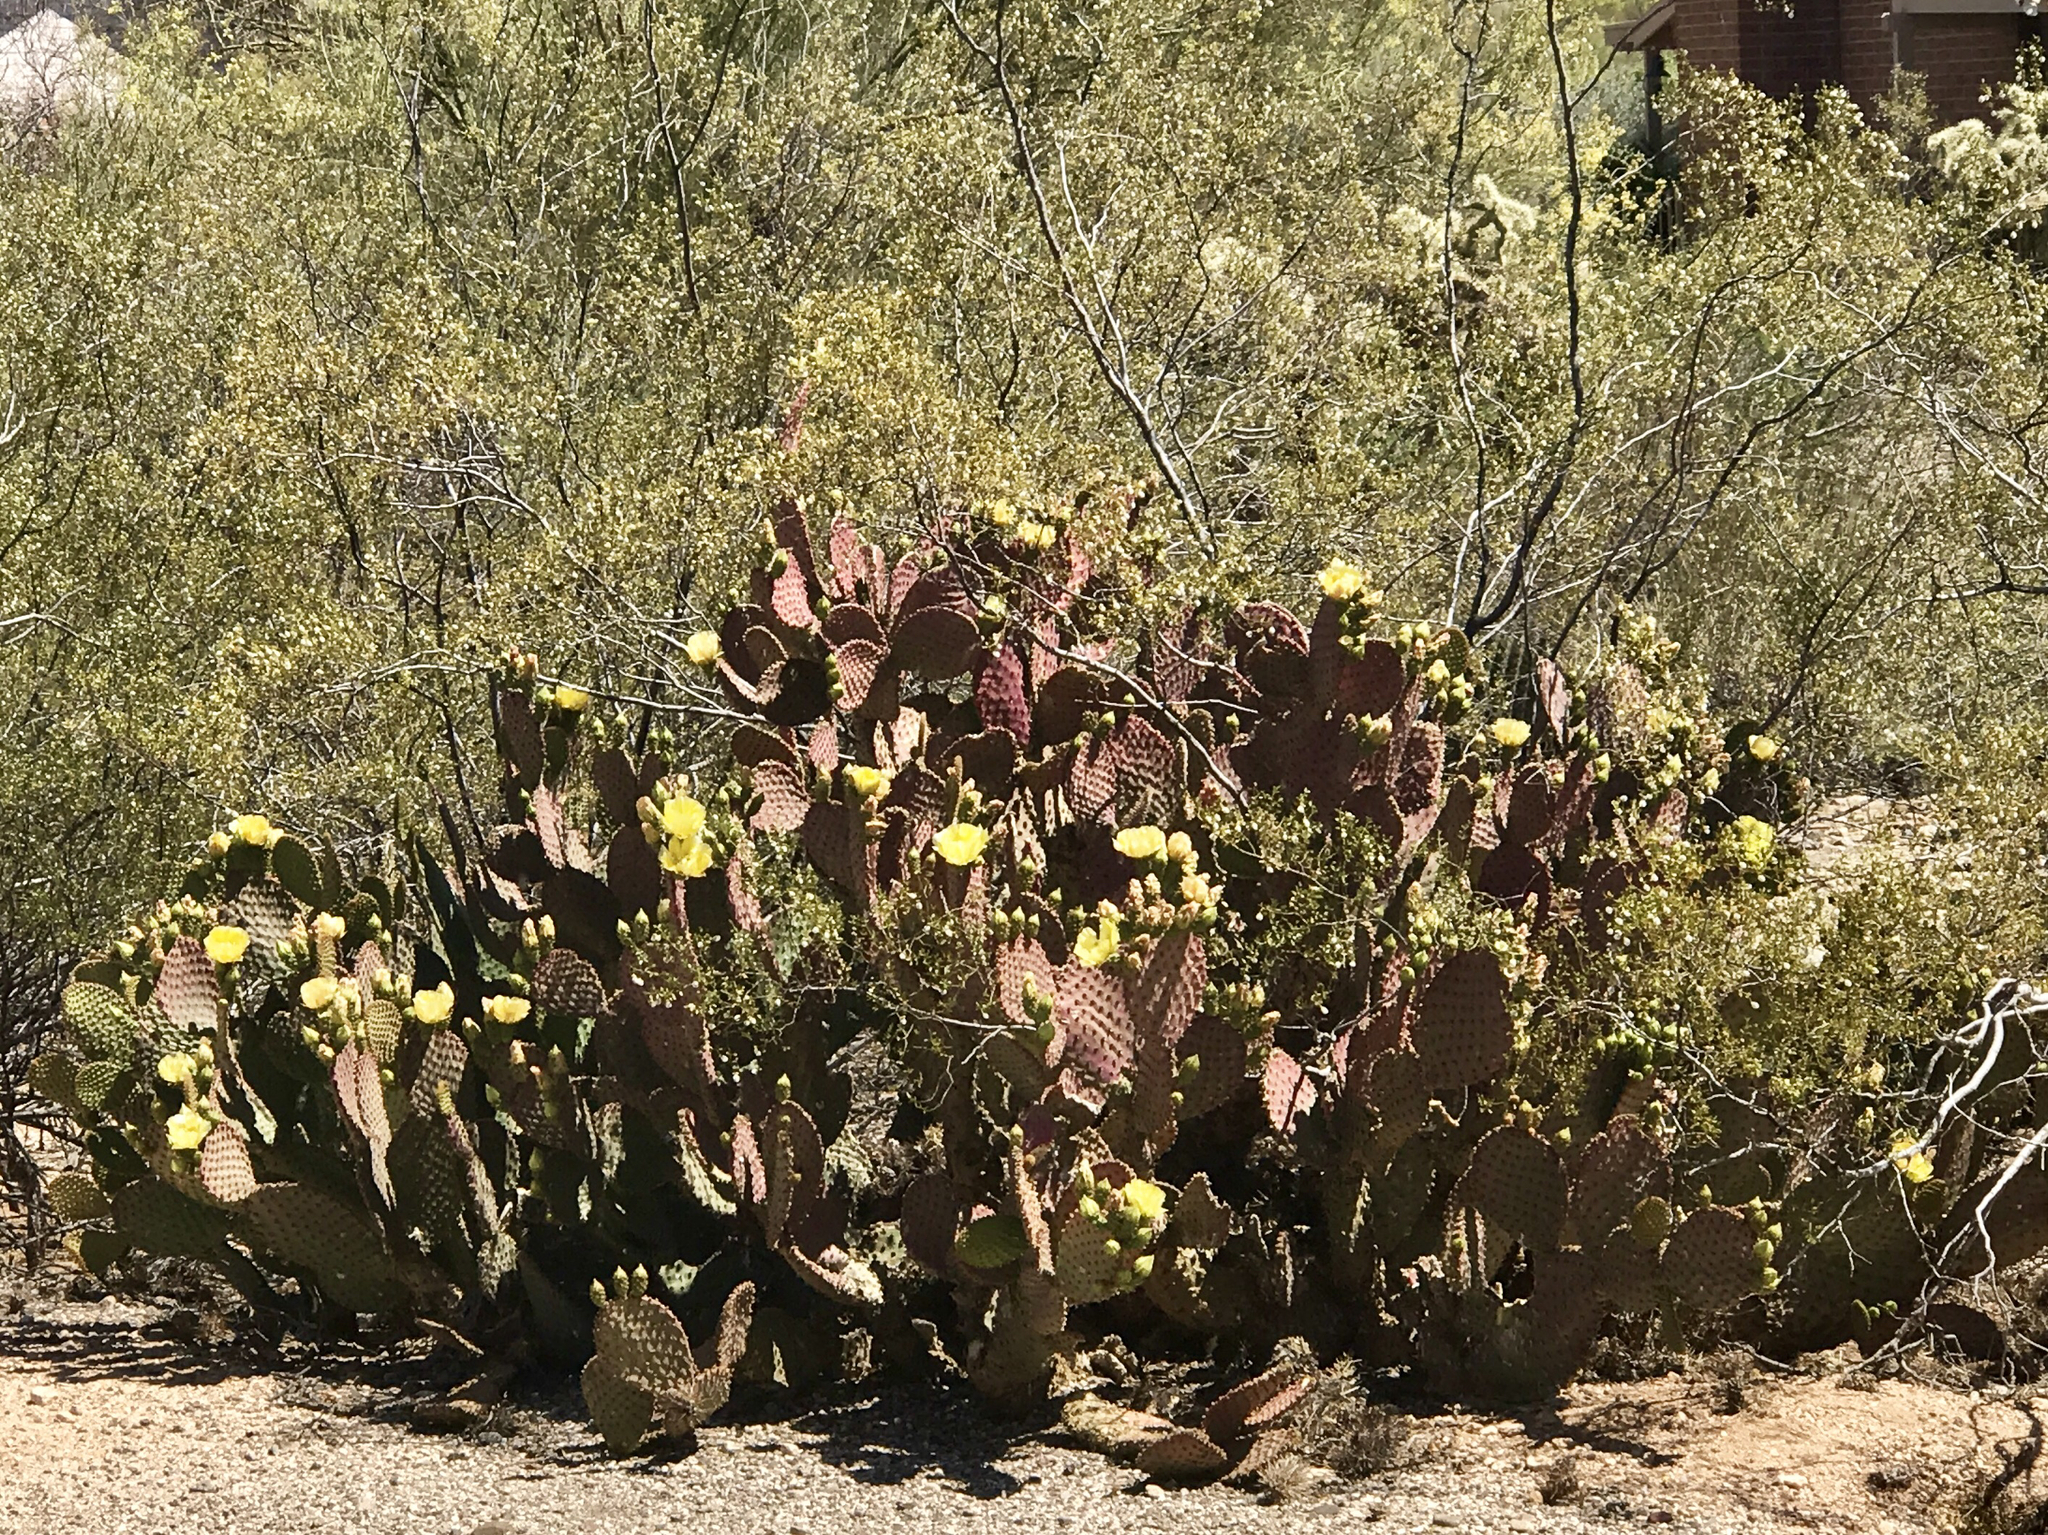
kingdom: Plantae
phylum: Tracheophyta
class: Magnoliopsida
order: Caryophyllales
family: Cactaceae
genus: Opuntia
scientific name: Opuntia gosseliniana
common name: Violet prickly-pear
